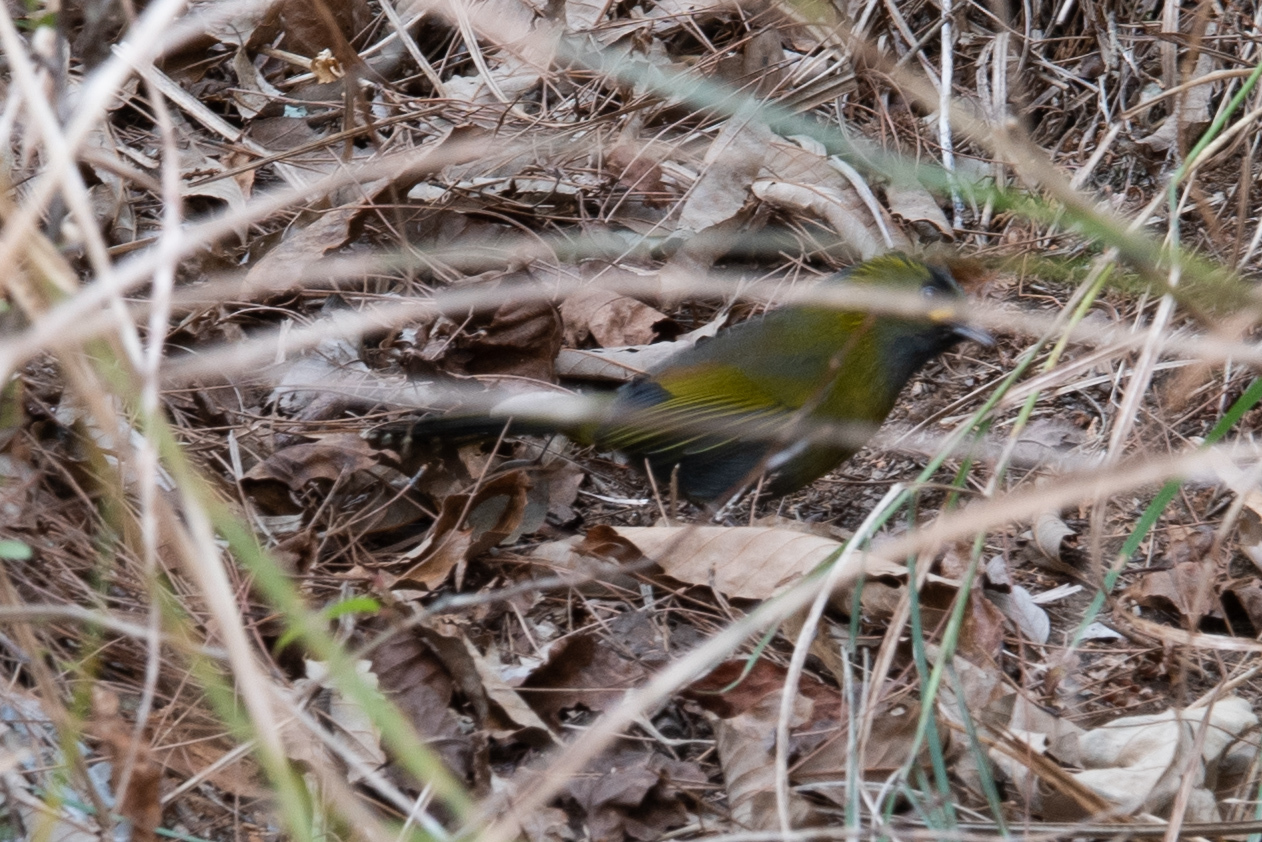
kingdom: Animalia
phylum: Chordata
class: Aves
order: Passeriformes
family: Leiothrichidae
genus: Liocichla
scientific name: Liocichla steerii
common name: Steere's liocichla
